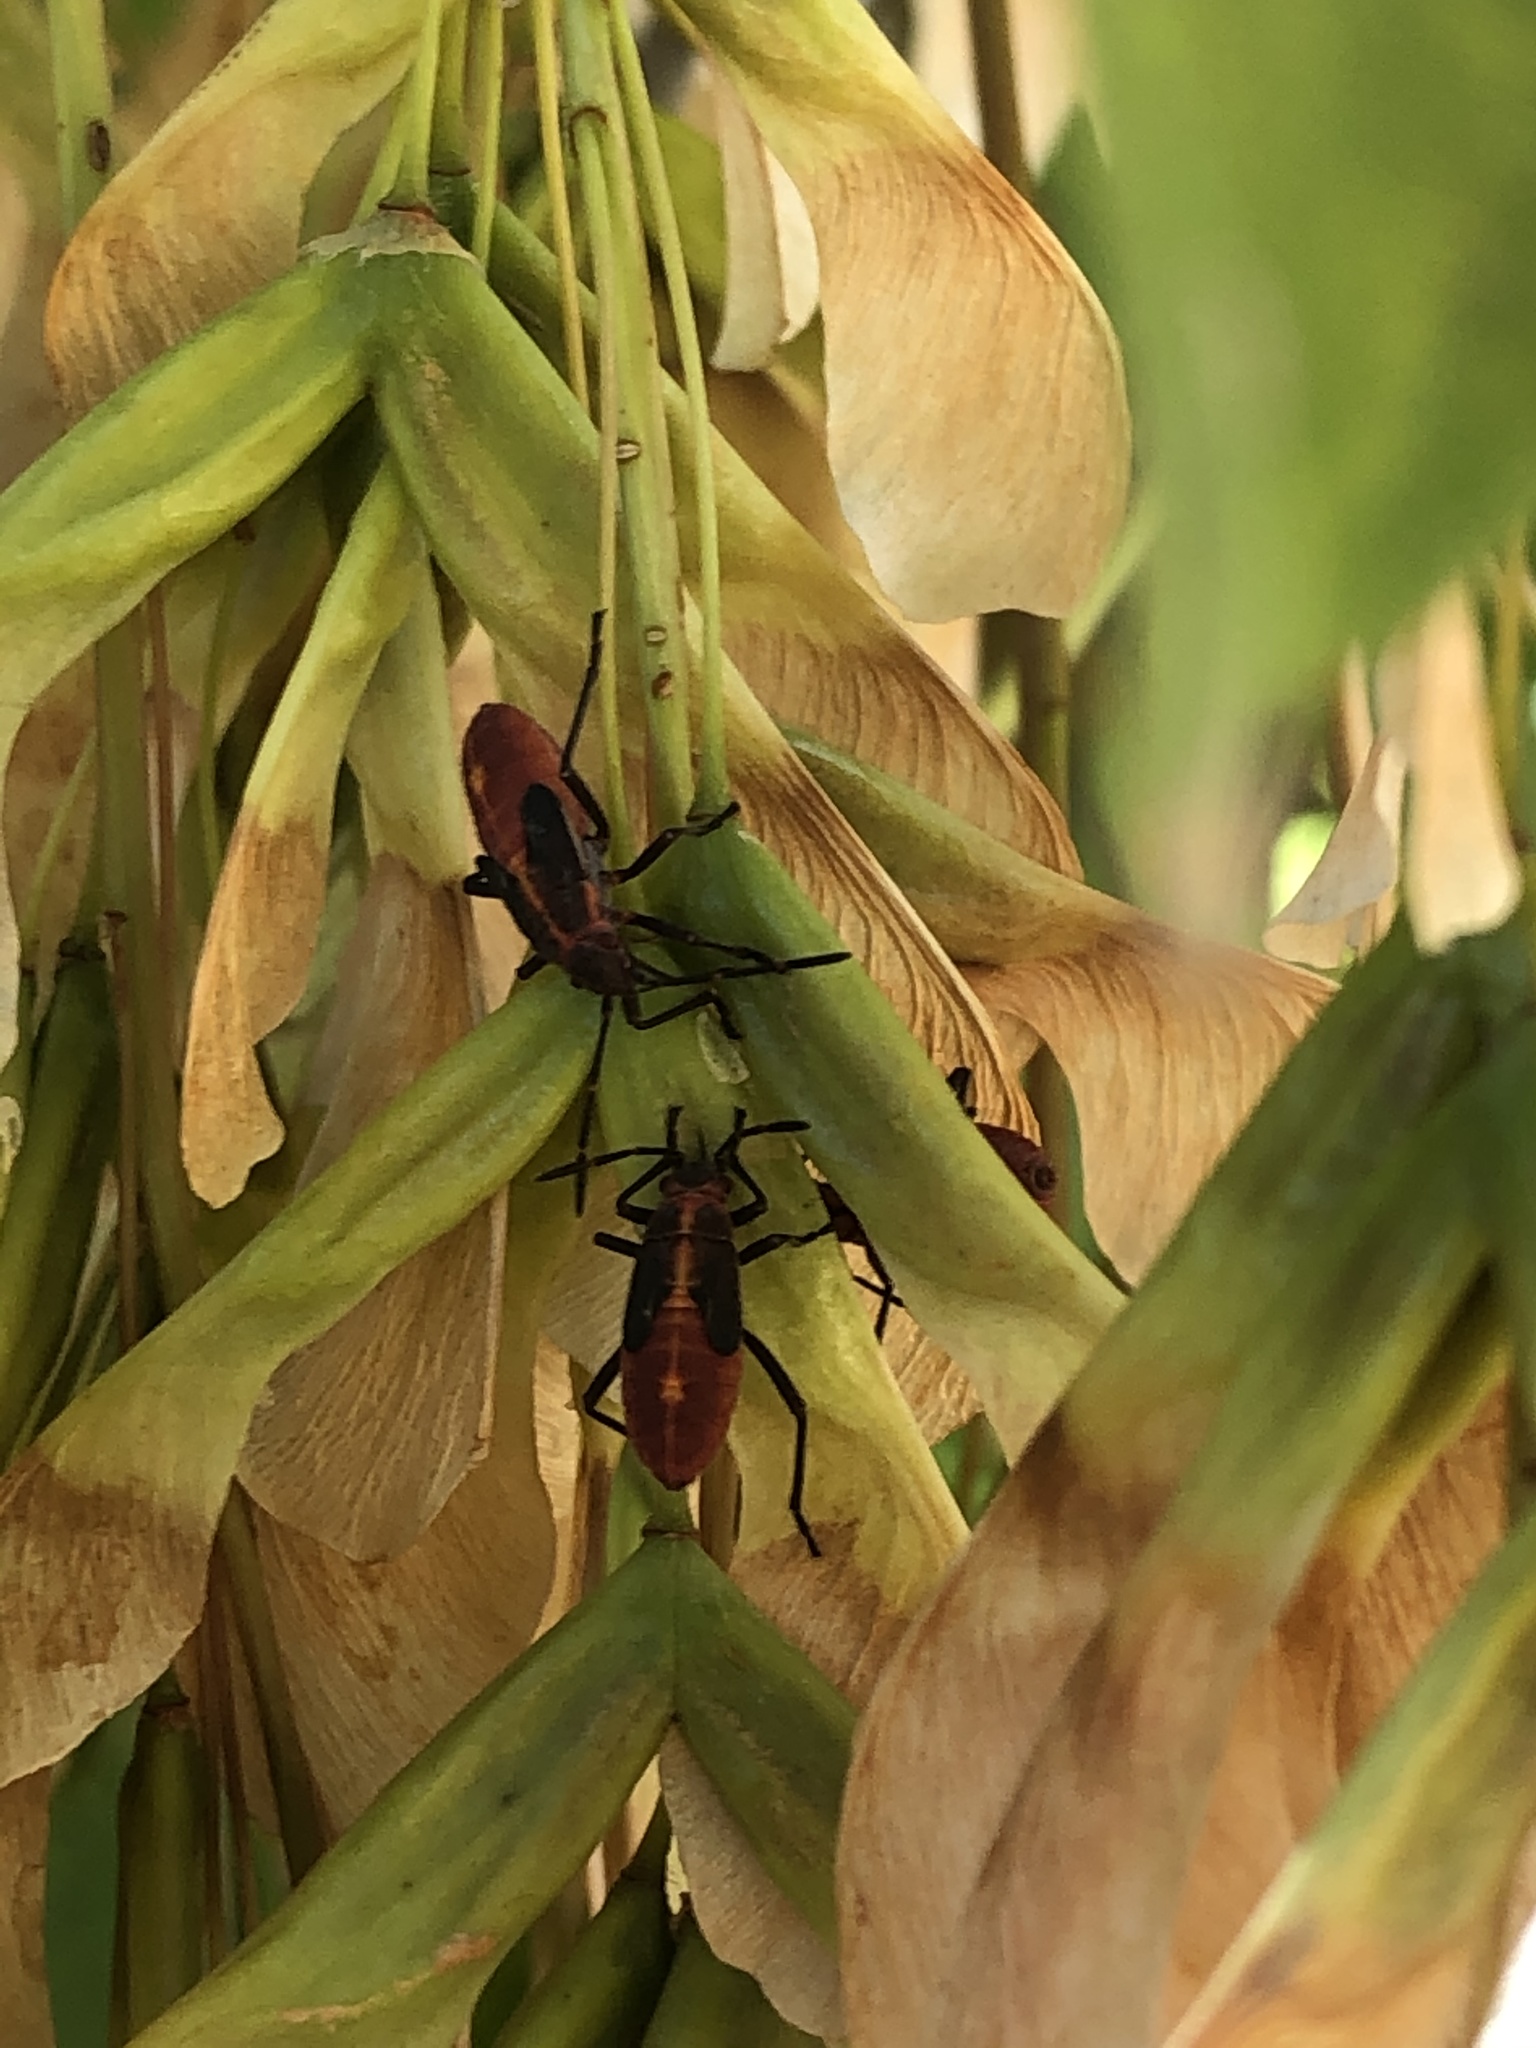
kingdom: Animalia
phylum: Arthropoda
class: Insecta
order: Hemiptera
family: Rhopalidae
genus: Boisea
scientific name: Boisea trivittata
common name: Boxelder bug
